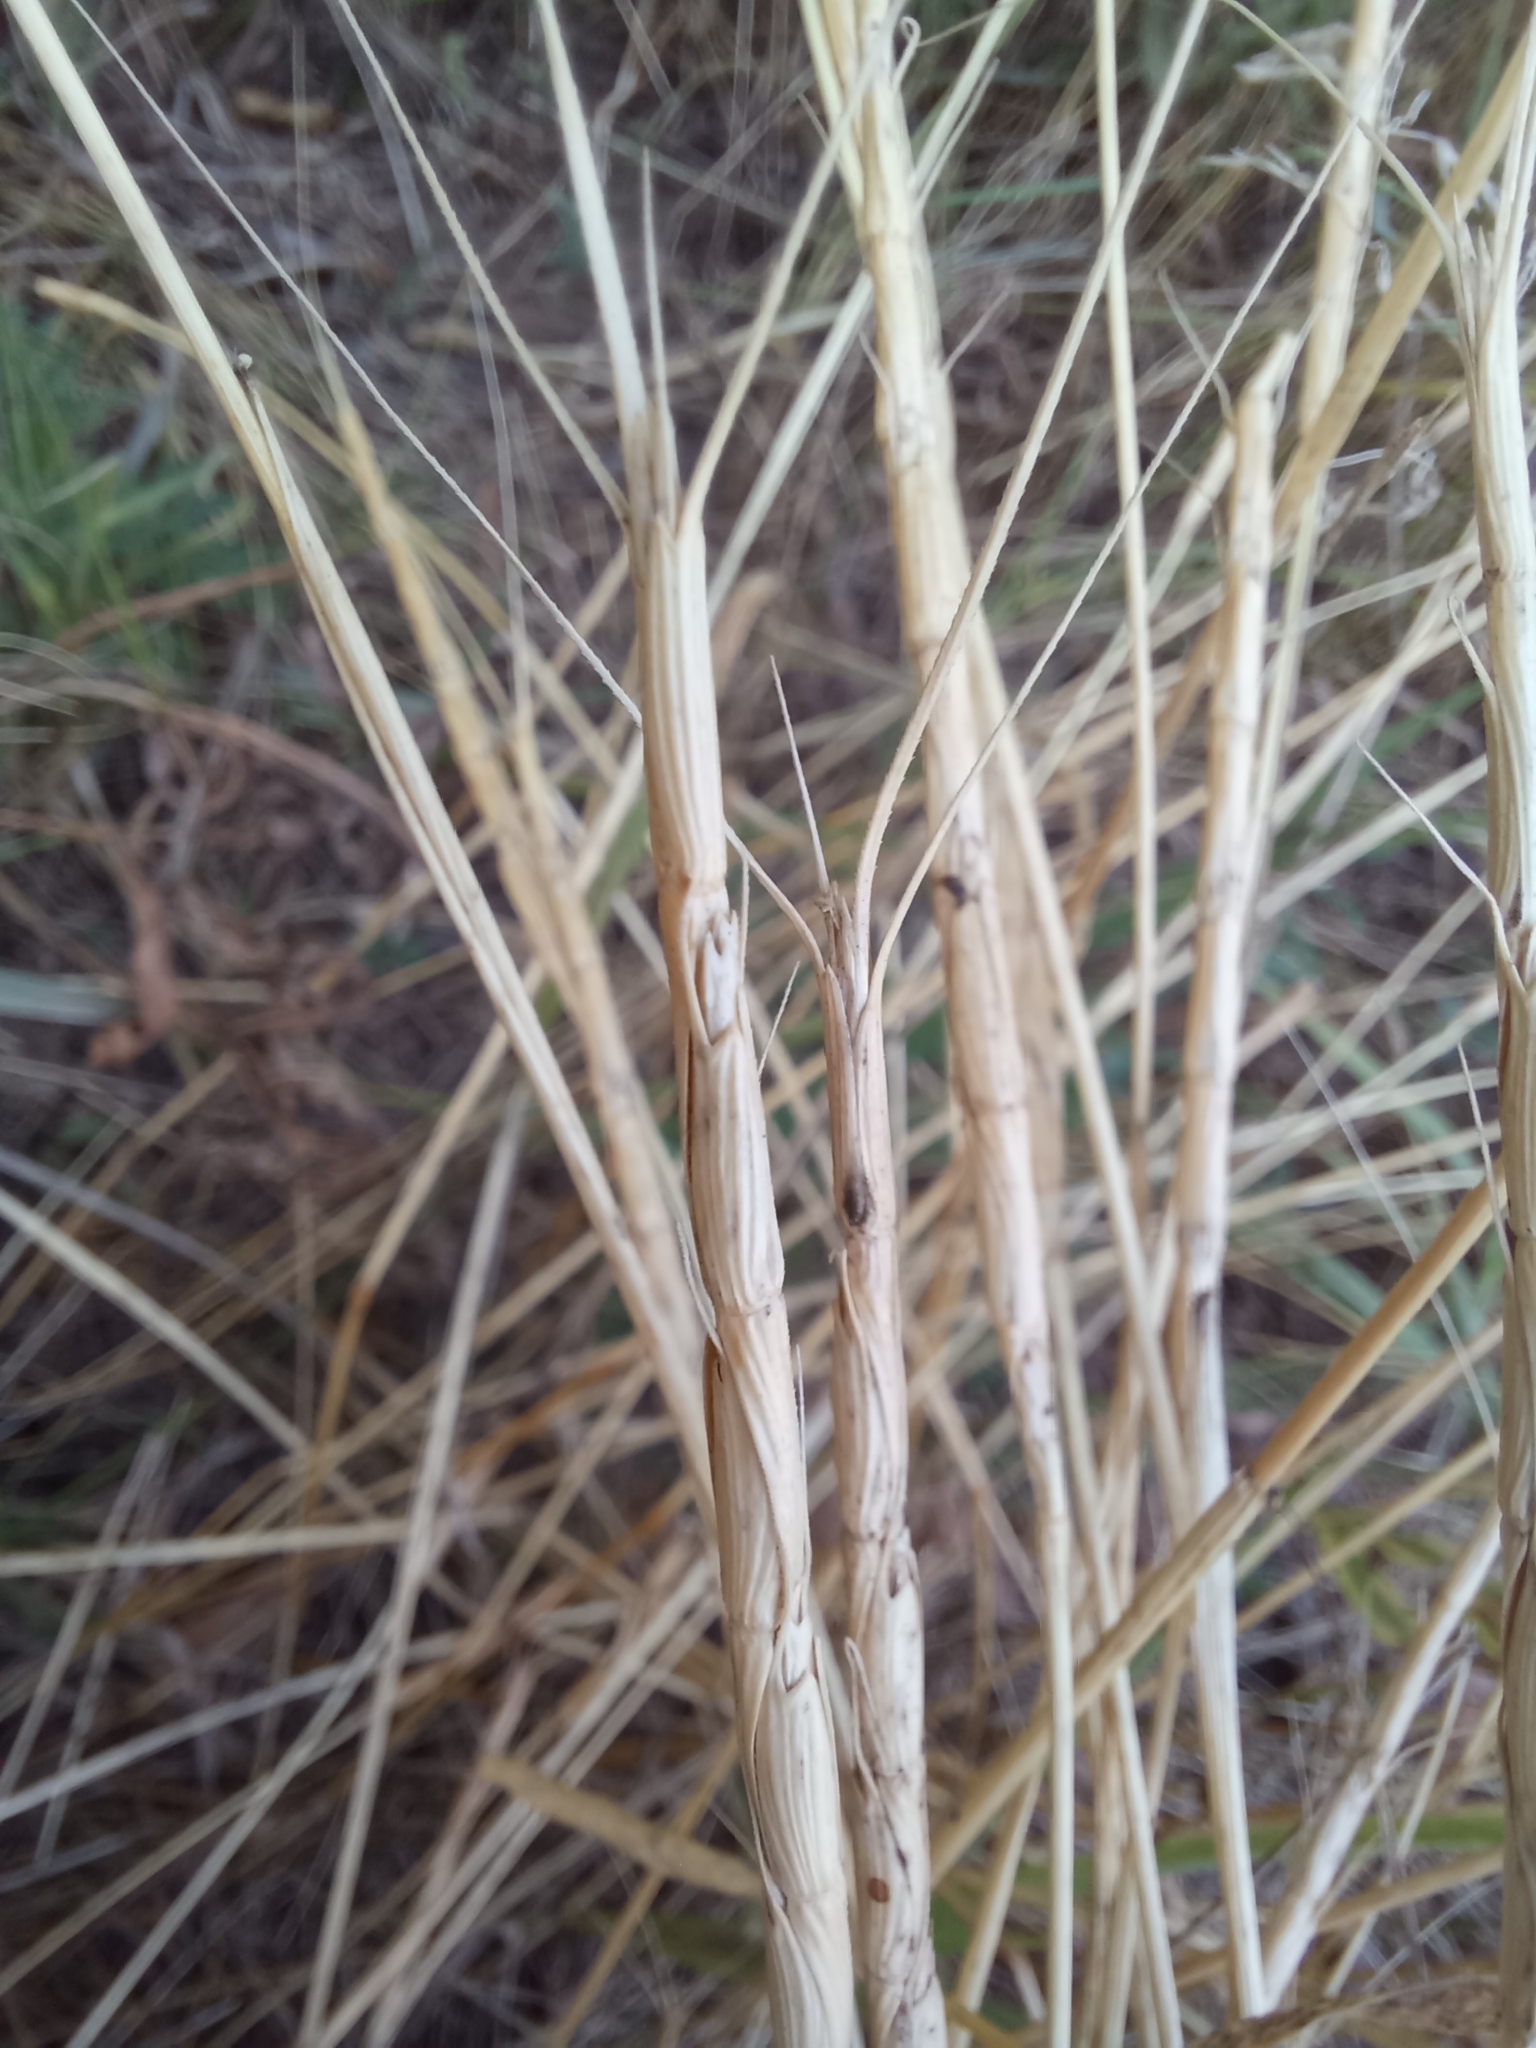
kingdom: Plantae
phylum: Tracheophyta
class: Liliopsida
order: Poales
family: Poaceae
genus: Aegilops
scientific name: Aegilops cylindrica
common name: Jointed goatgrass
